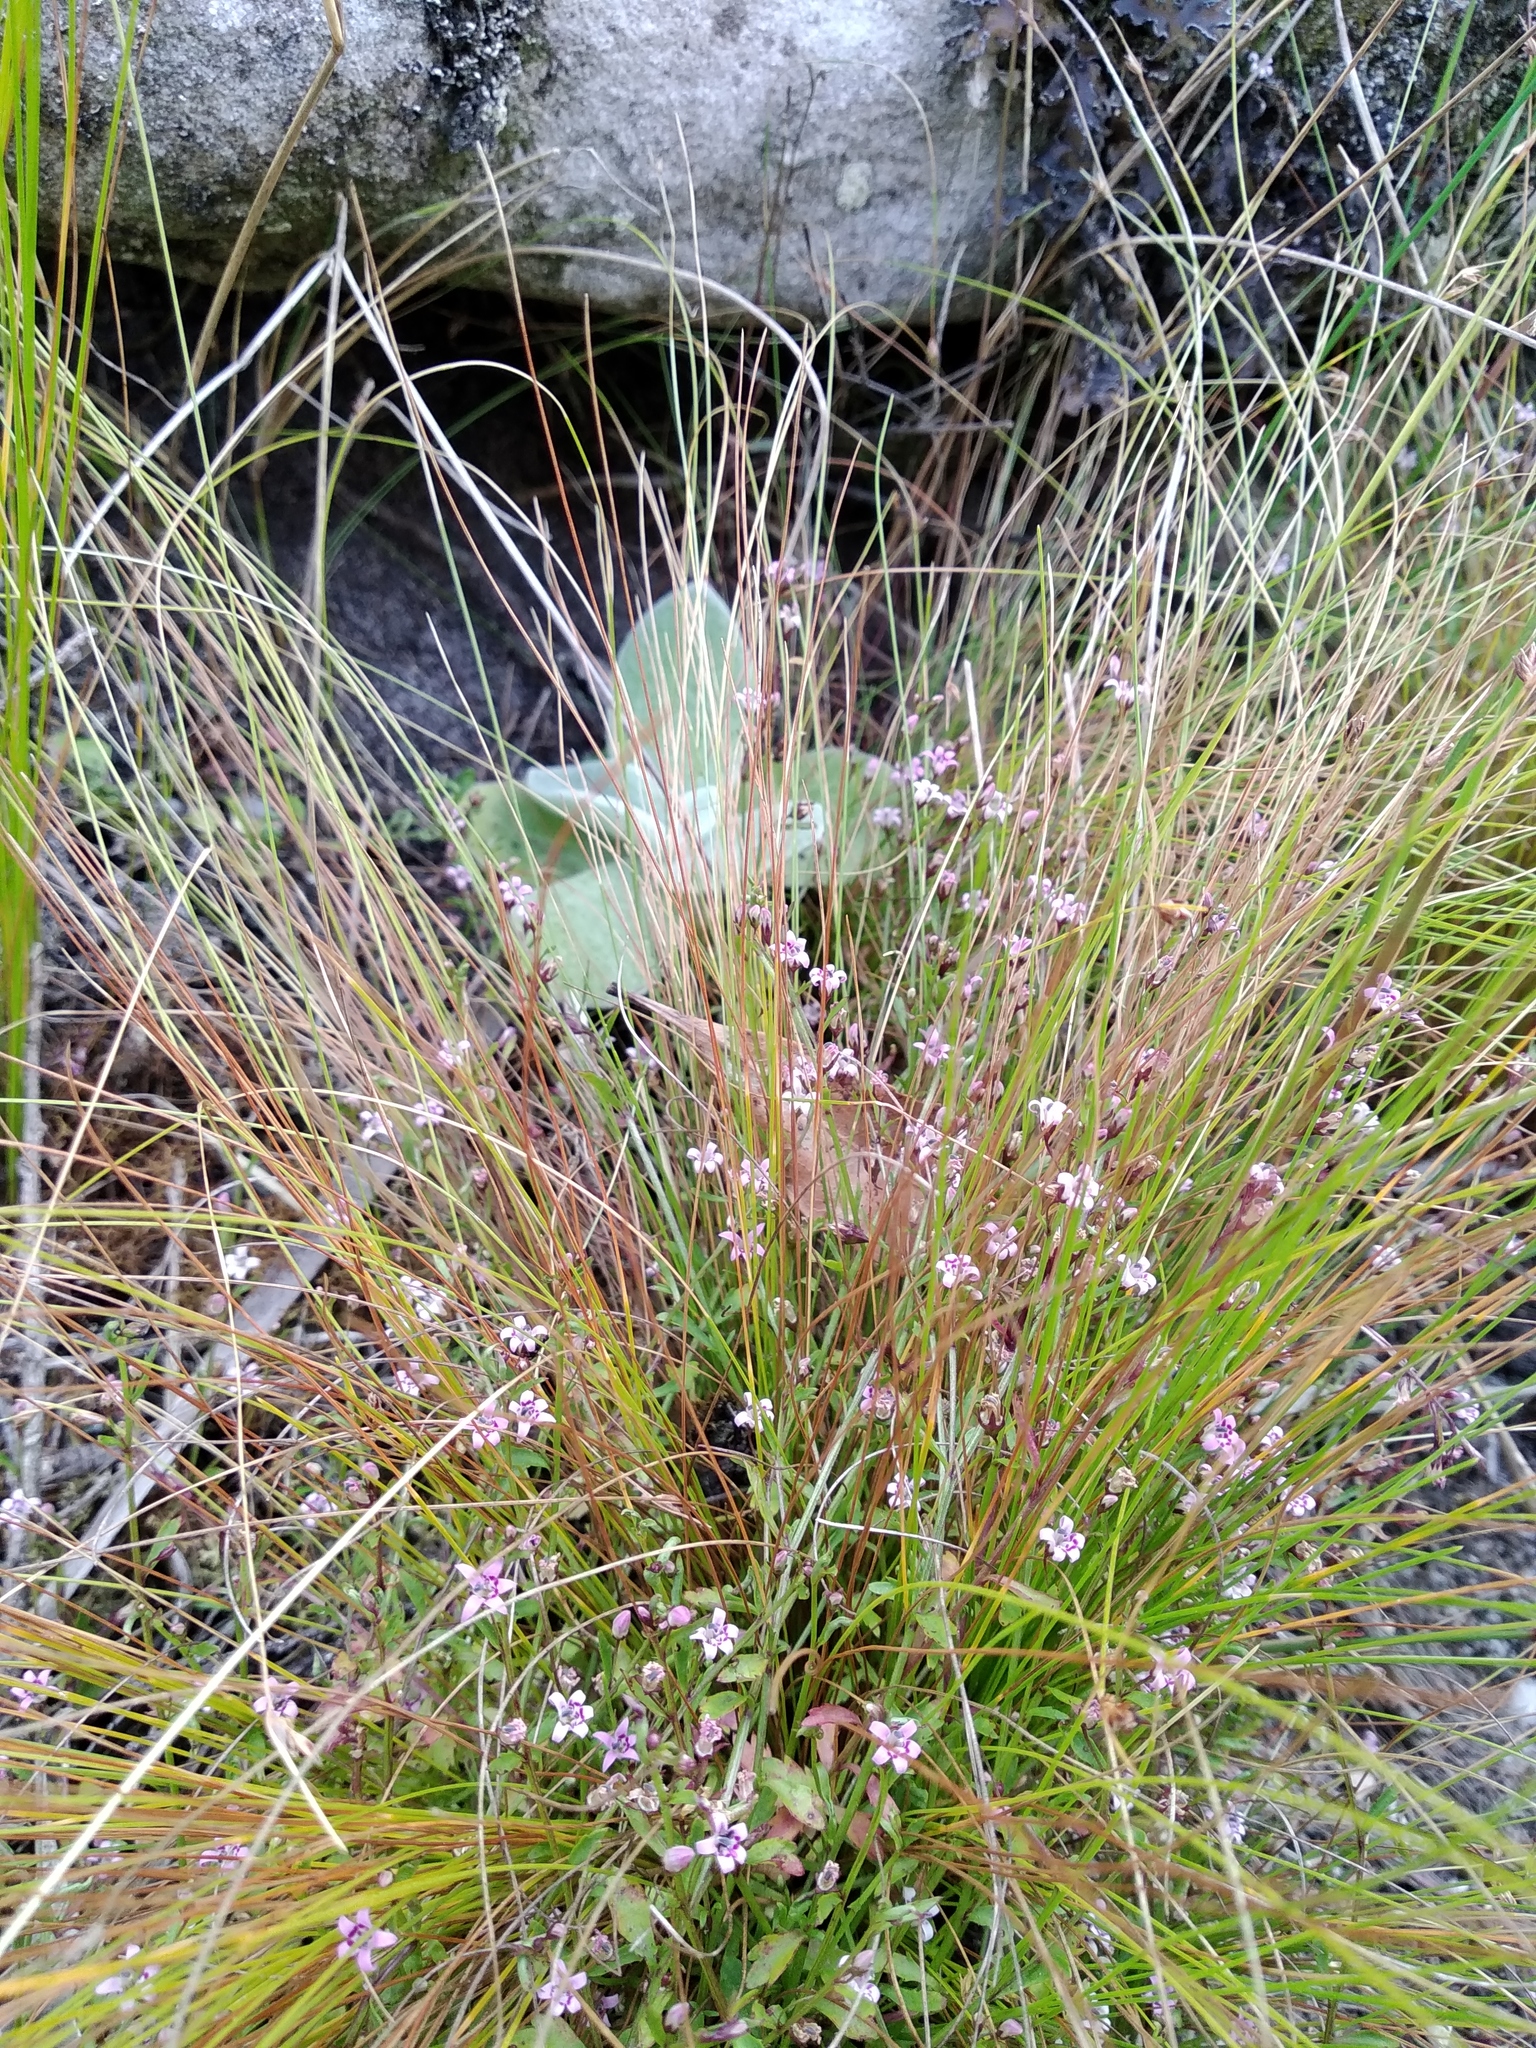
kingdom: Plantae
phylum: Tracheophyta
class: Magnoliopsida
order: Asterales
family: Campanulaceae
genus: Lobelia
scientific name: Lobelia eckloniana
